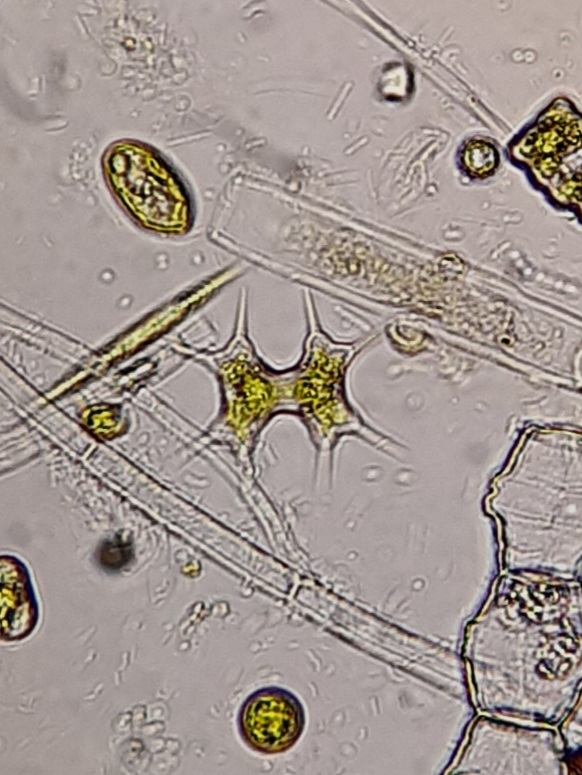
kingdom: Plantae
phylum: Charophyta
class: Conjugatophyceae
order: Desmidiales
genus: Staurodesmus
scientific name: Staurodesmus octocornis
